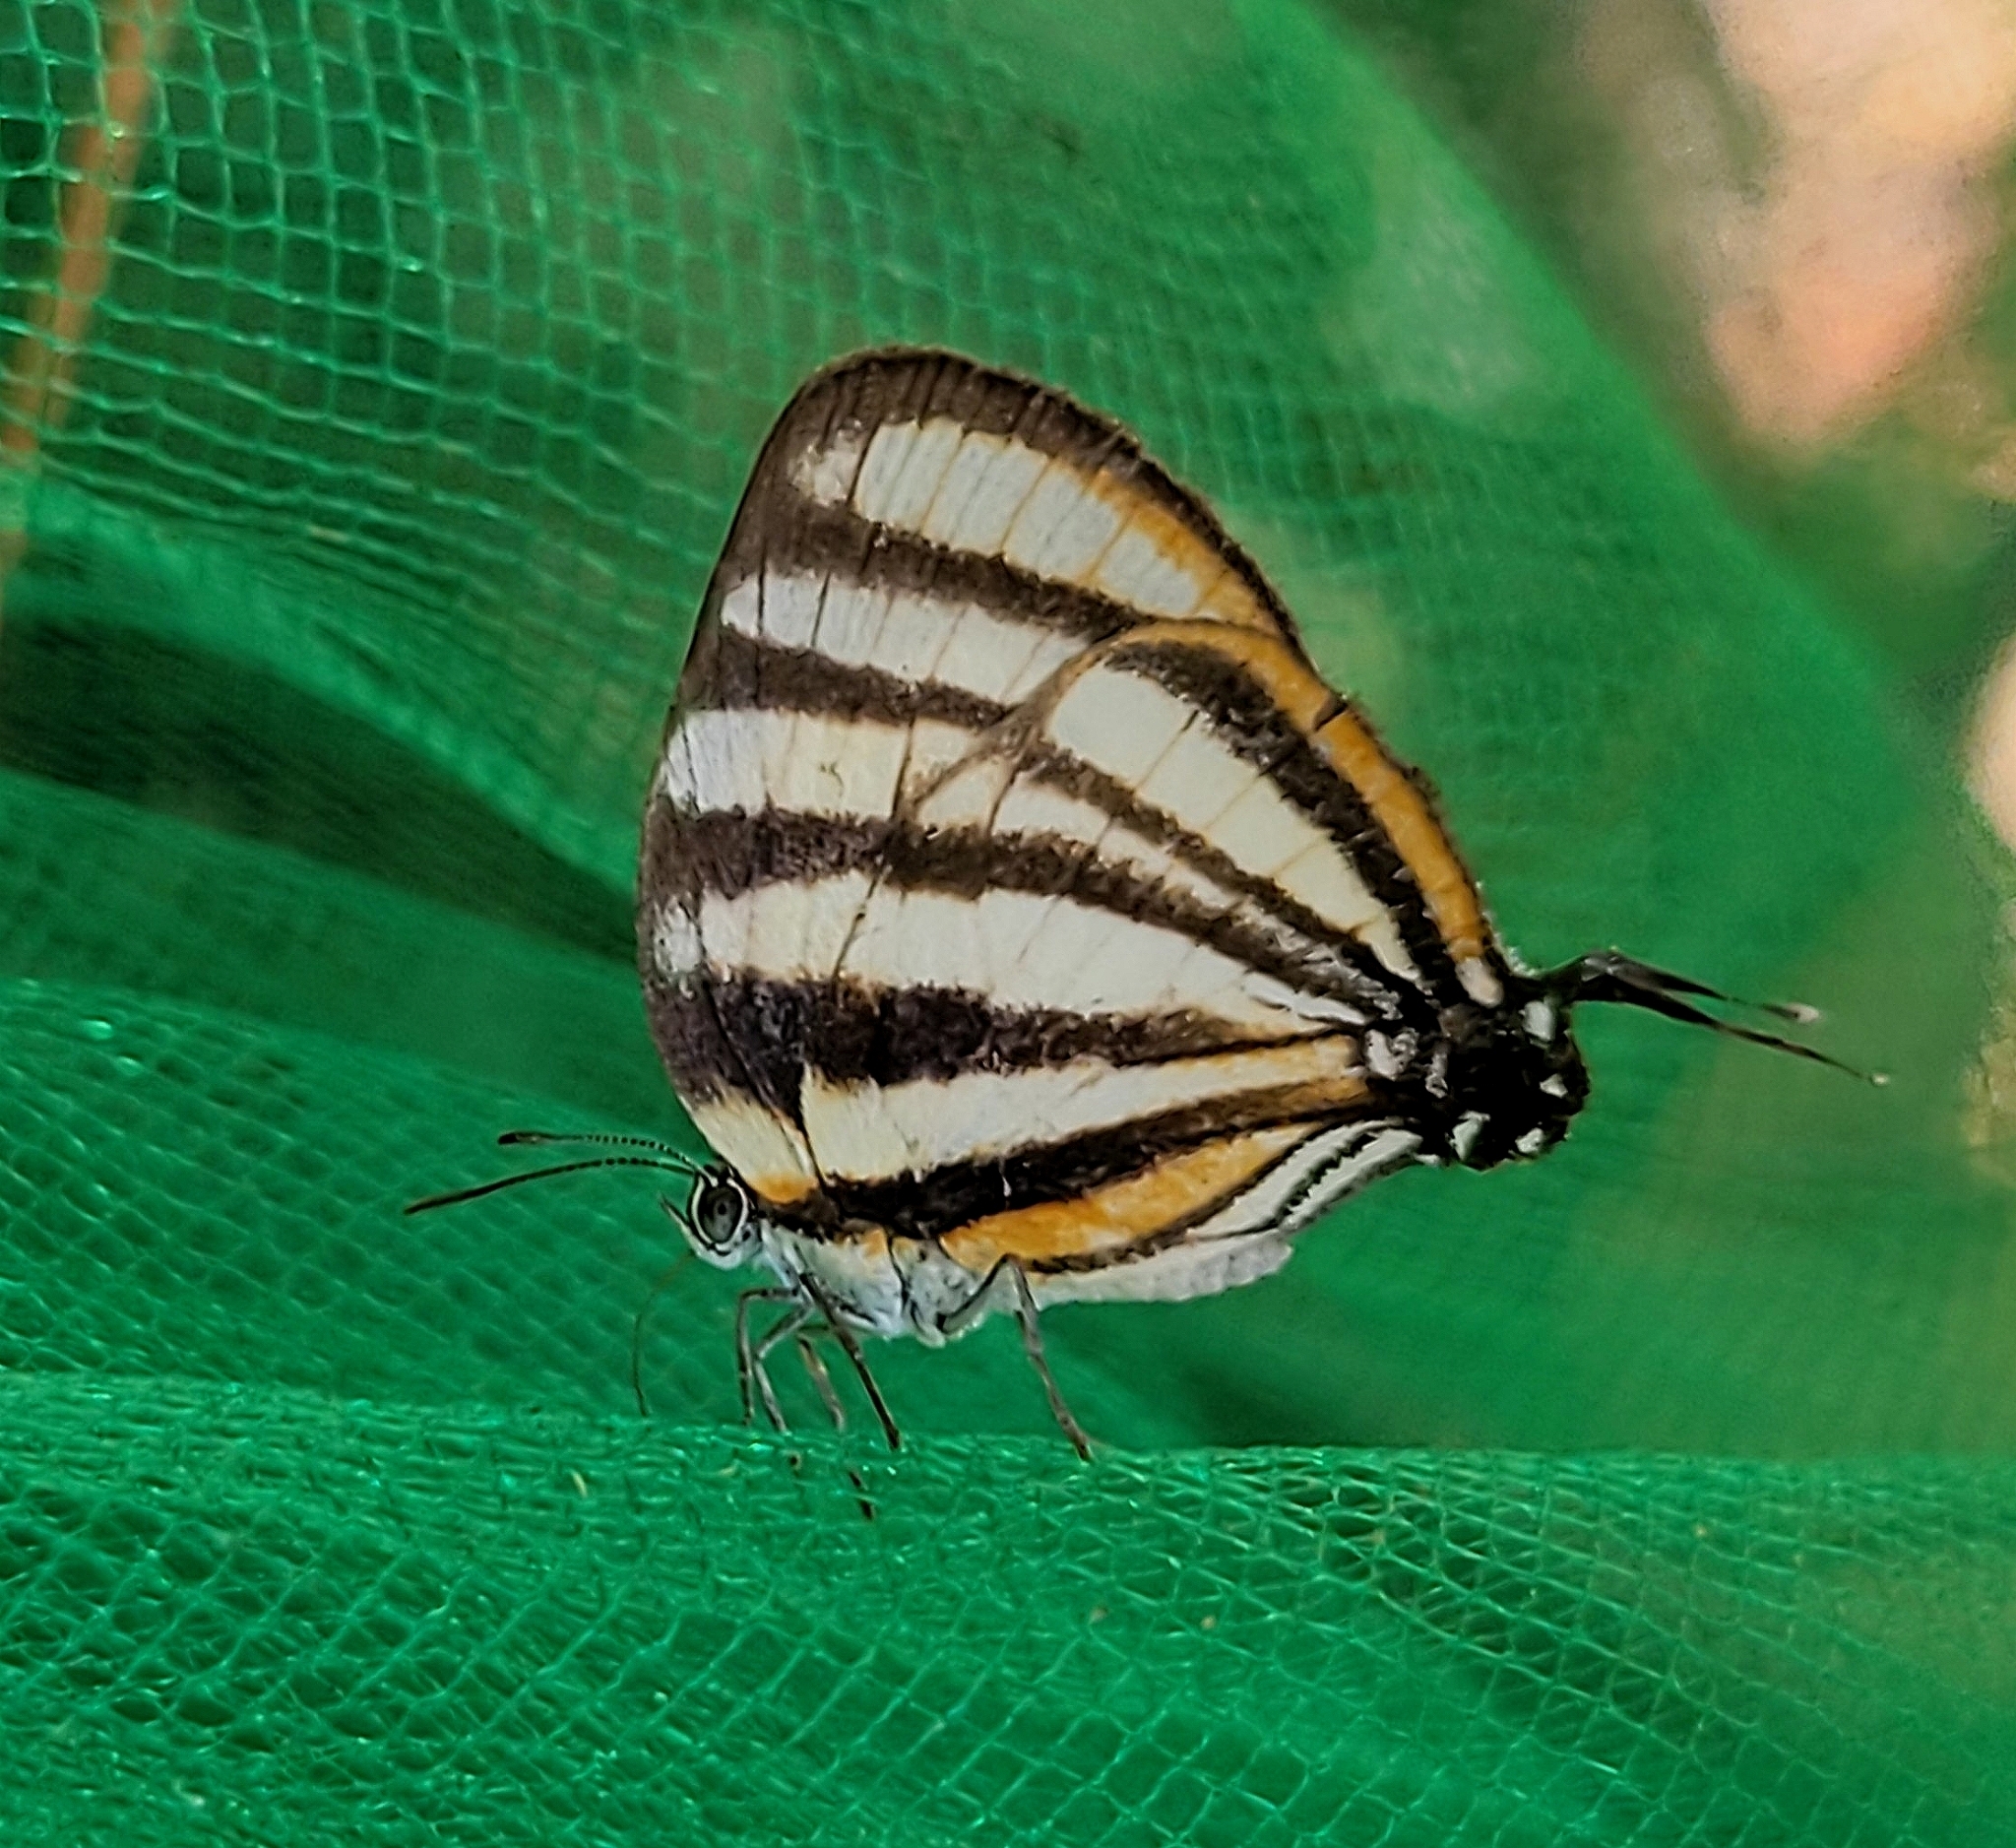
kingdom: Animalia
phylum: Arthropoda
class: Insecta
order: Lepidoptera
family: Lycaenidae
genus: Arawacus
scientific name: Arawacus separata
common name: Separated stripestreak
